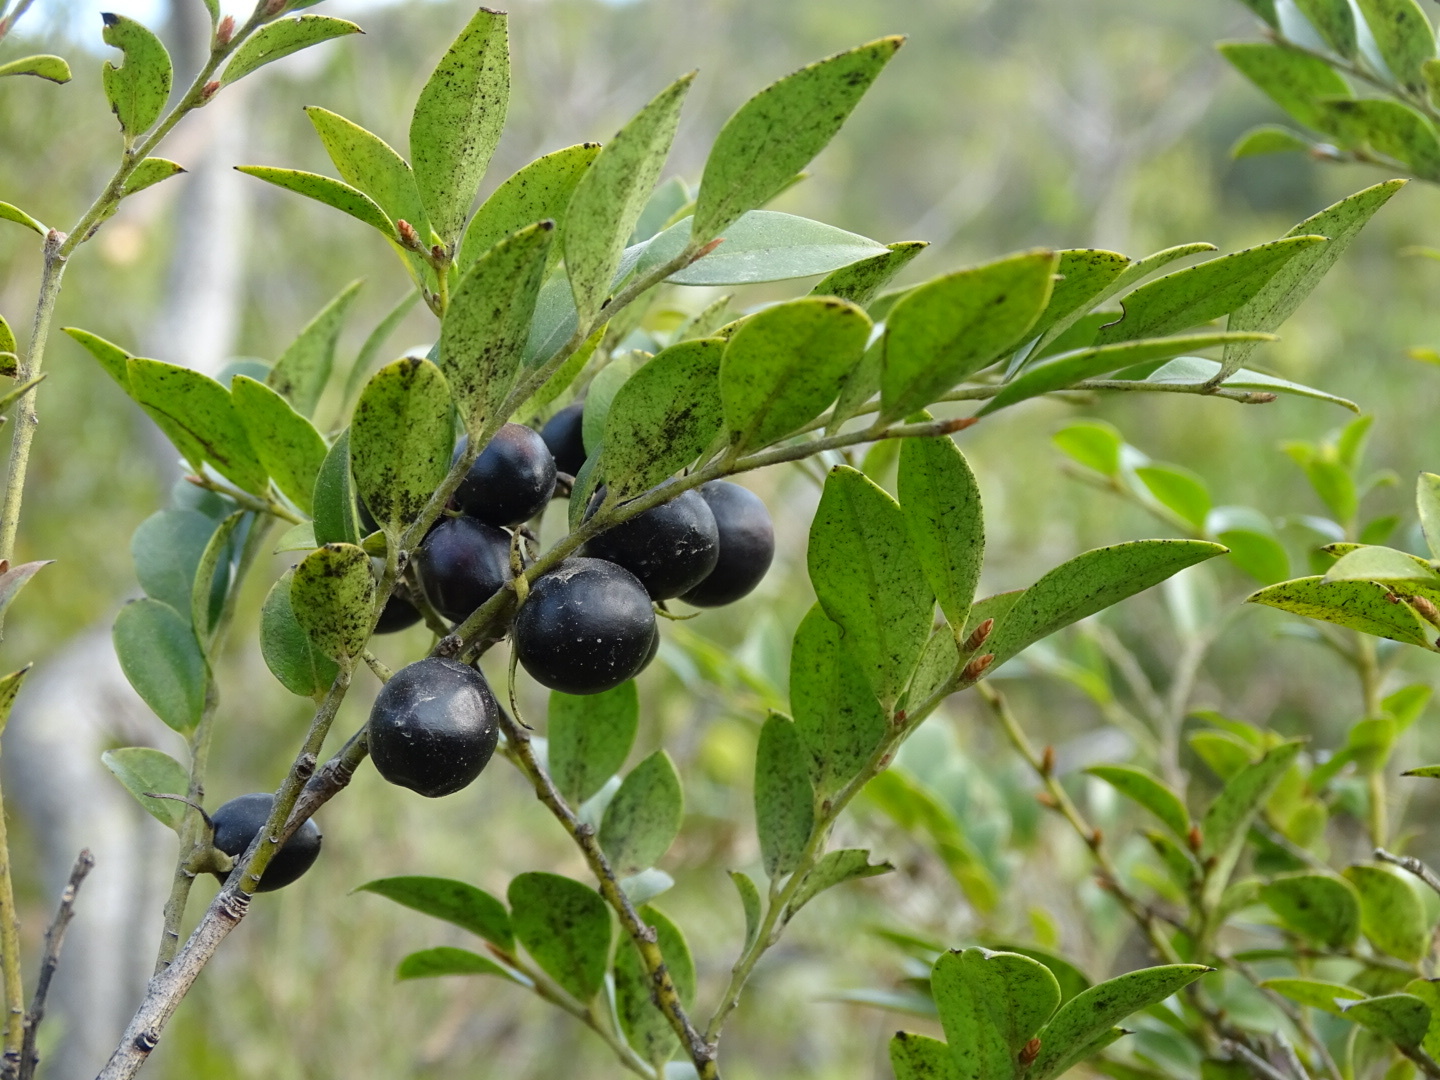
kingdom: Plantae
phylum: Tracheophyta
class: Magnoliopsida
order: Ericales
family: Ebenaceae
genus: Diospyros
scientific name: Diospyros vaccinioides
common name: Small persimmon
